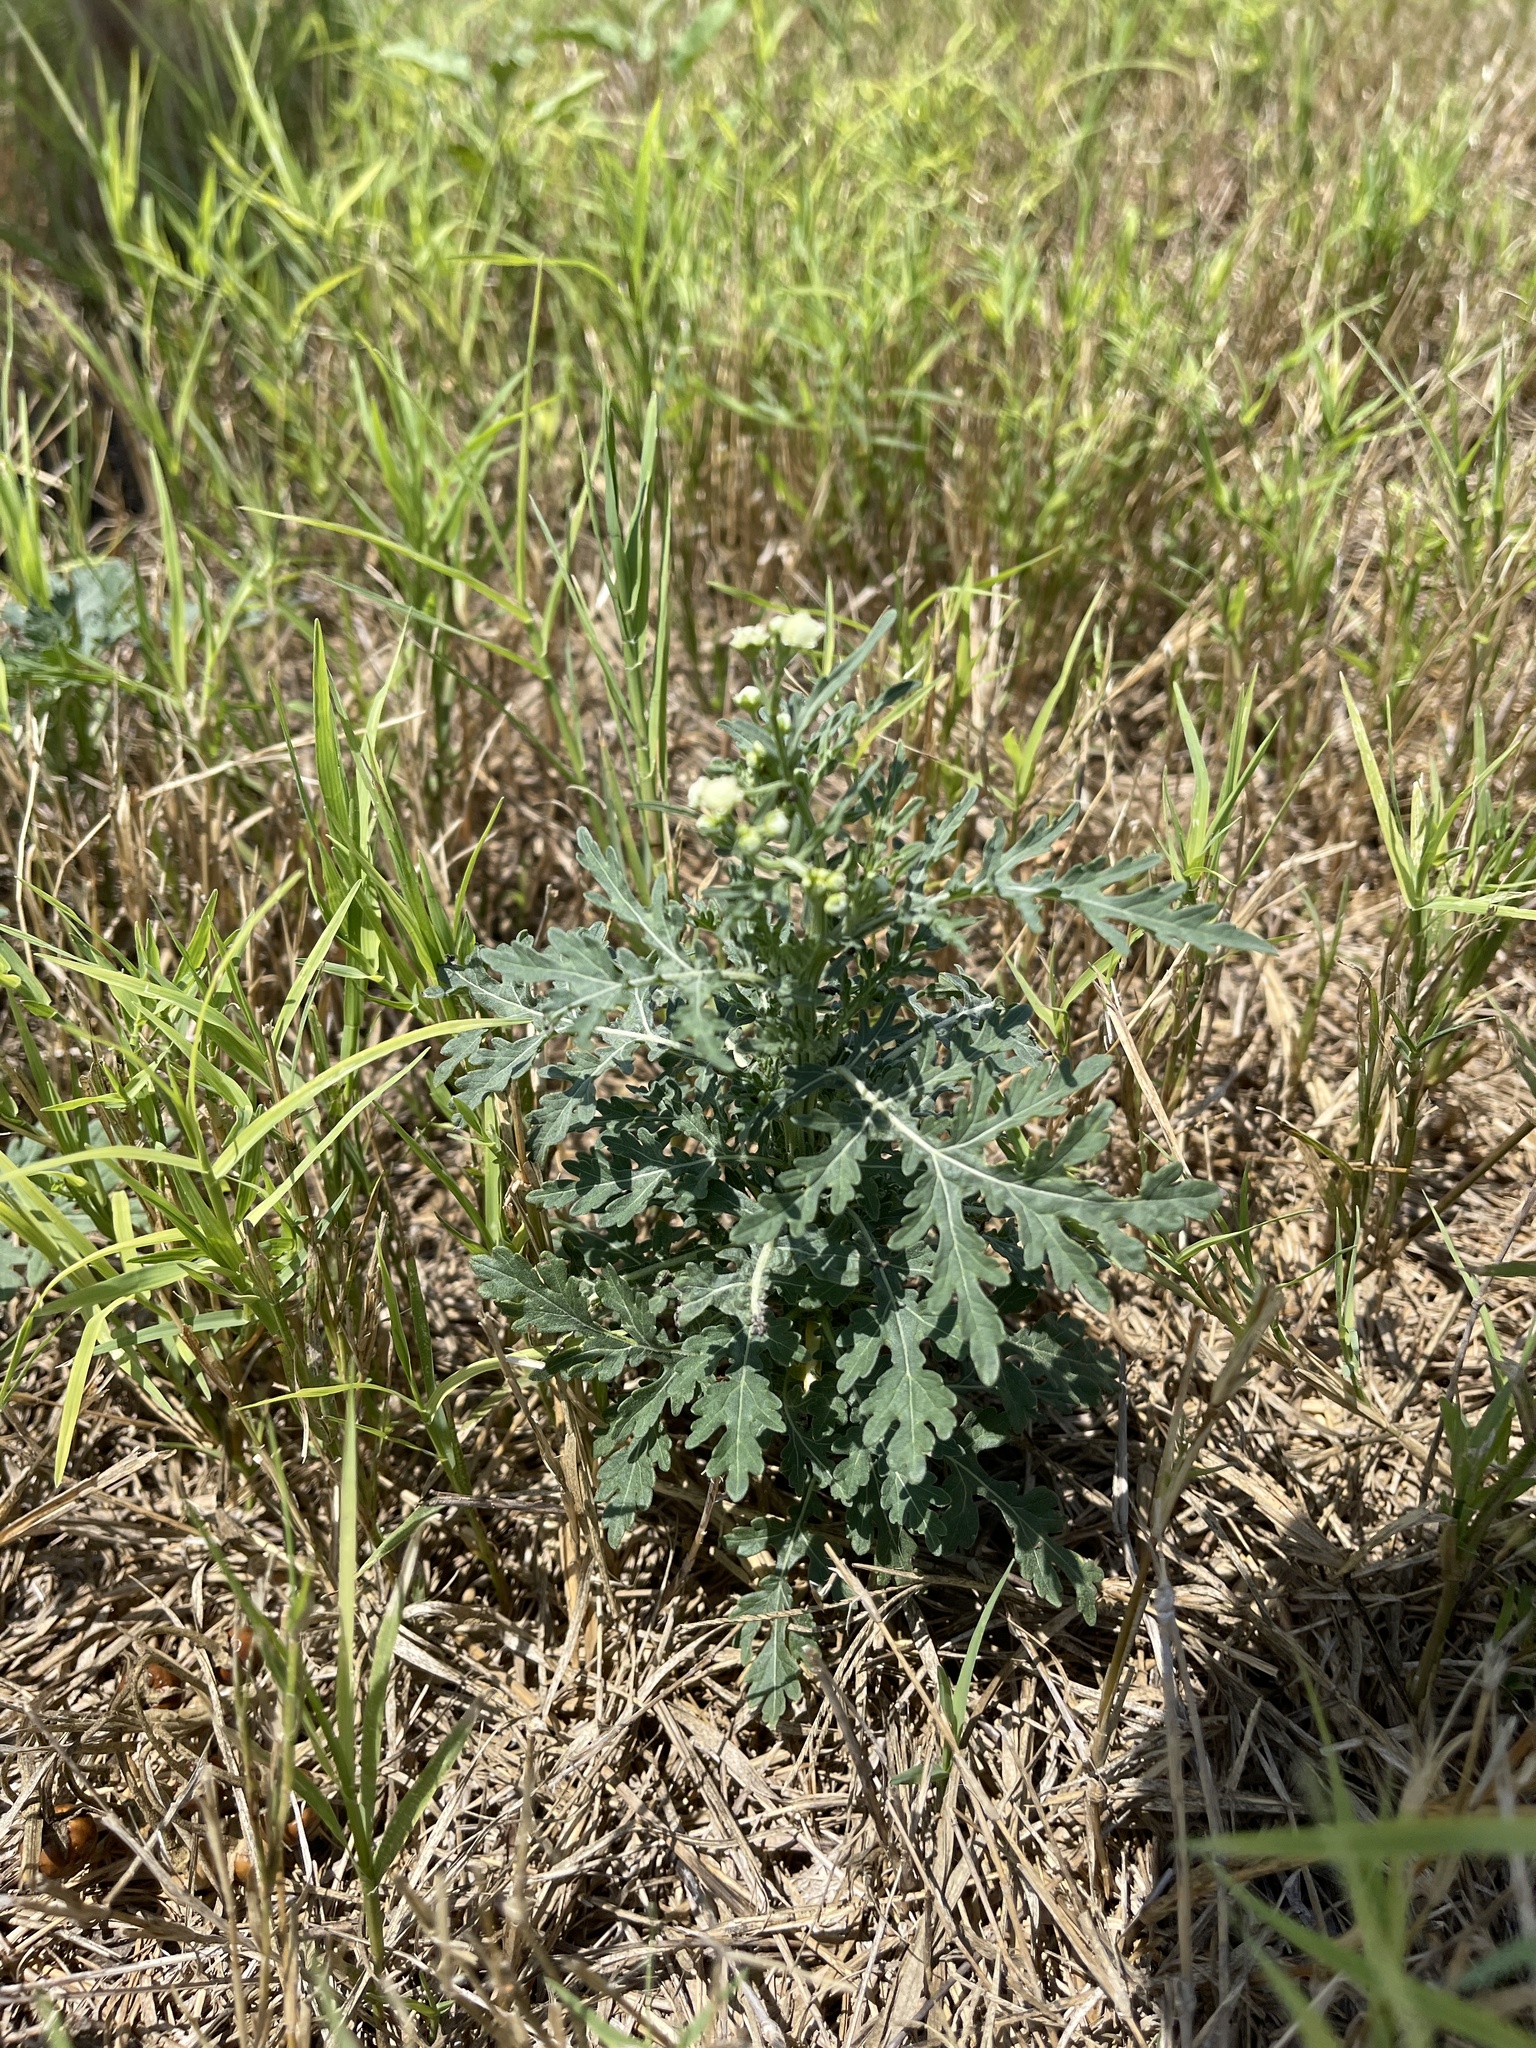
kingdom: Plantae
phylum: Tracheophyta
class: Magnoliopsida
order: Asterales
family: Asteraceae
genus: Parthenium
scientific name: Parthenium hysterophorus
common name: Santa maria feverfew
